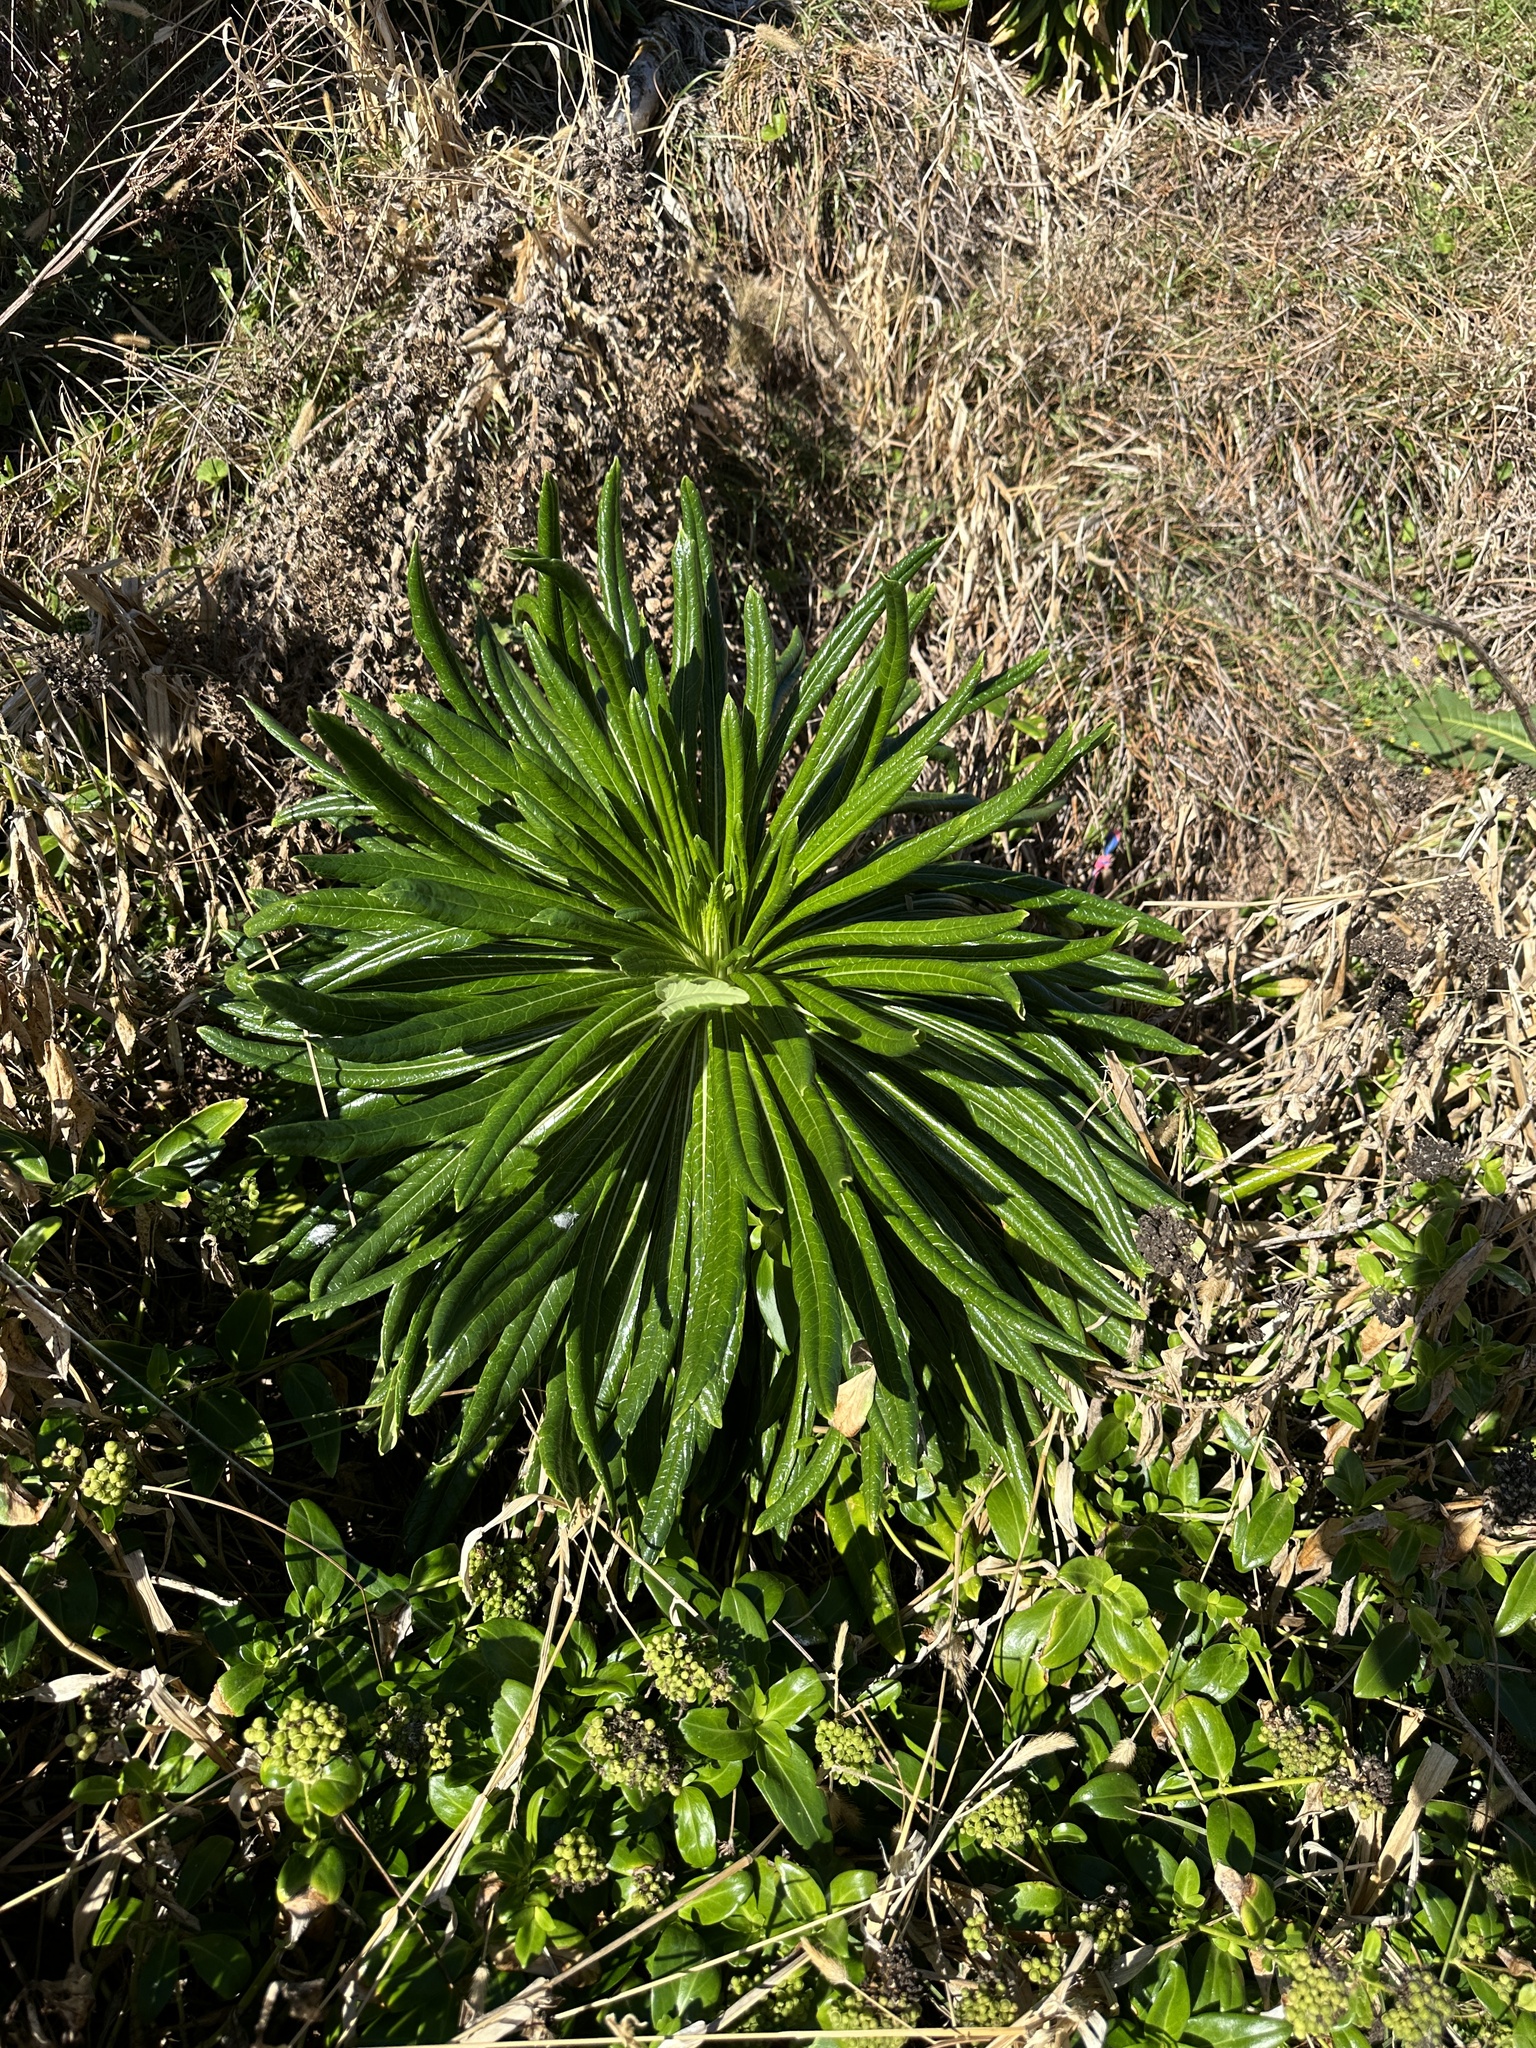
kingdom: Plantae
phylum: Tracheophyta
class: Magnoliopsida
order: Asterales
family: Campanulaceae
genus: Lobelia
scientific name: Lobelia boninensis
